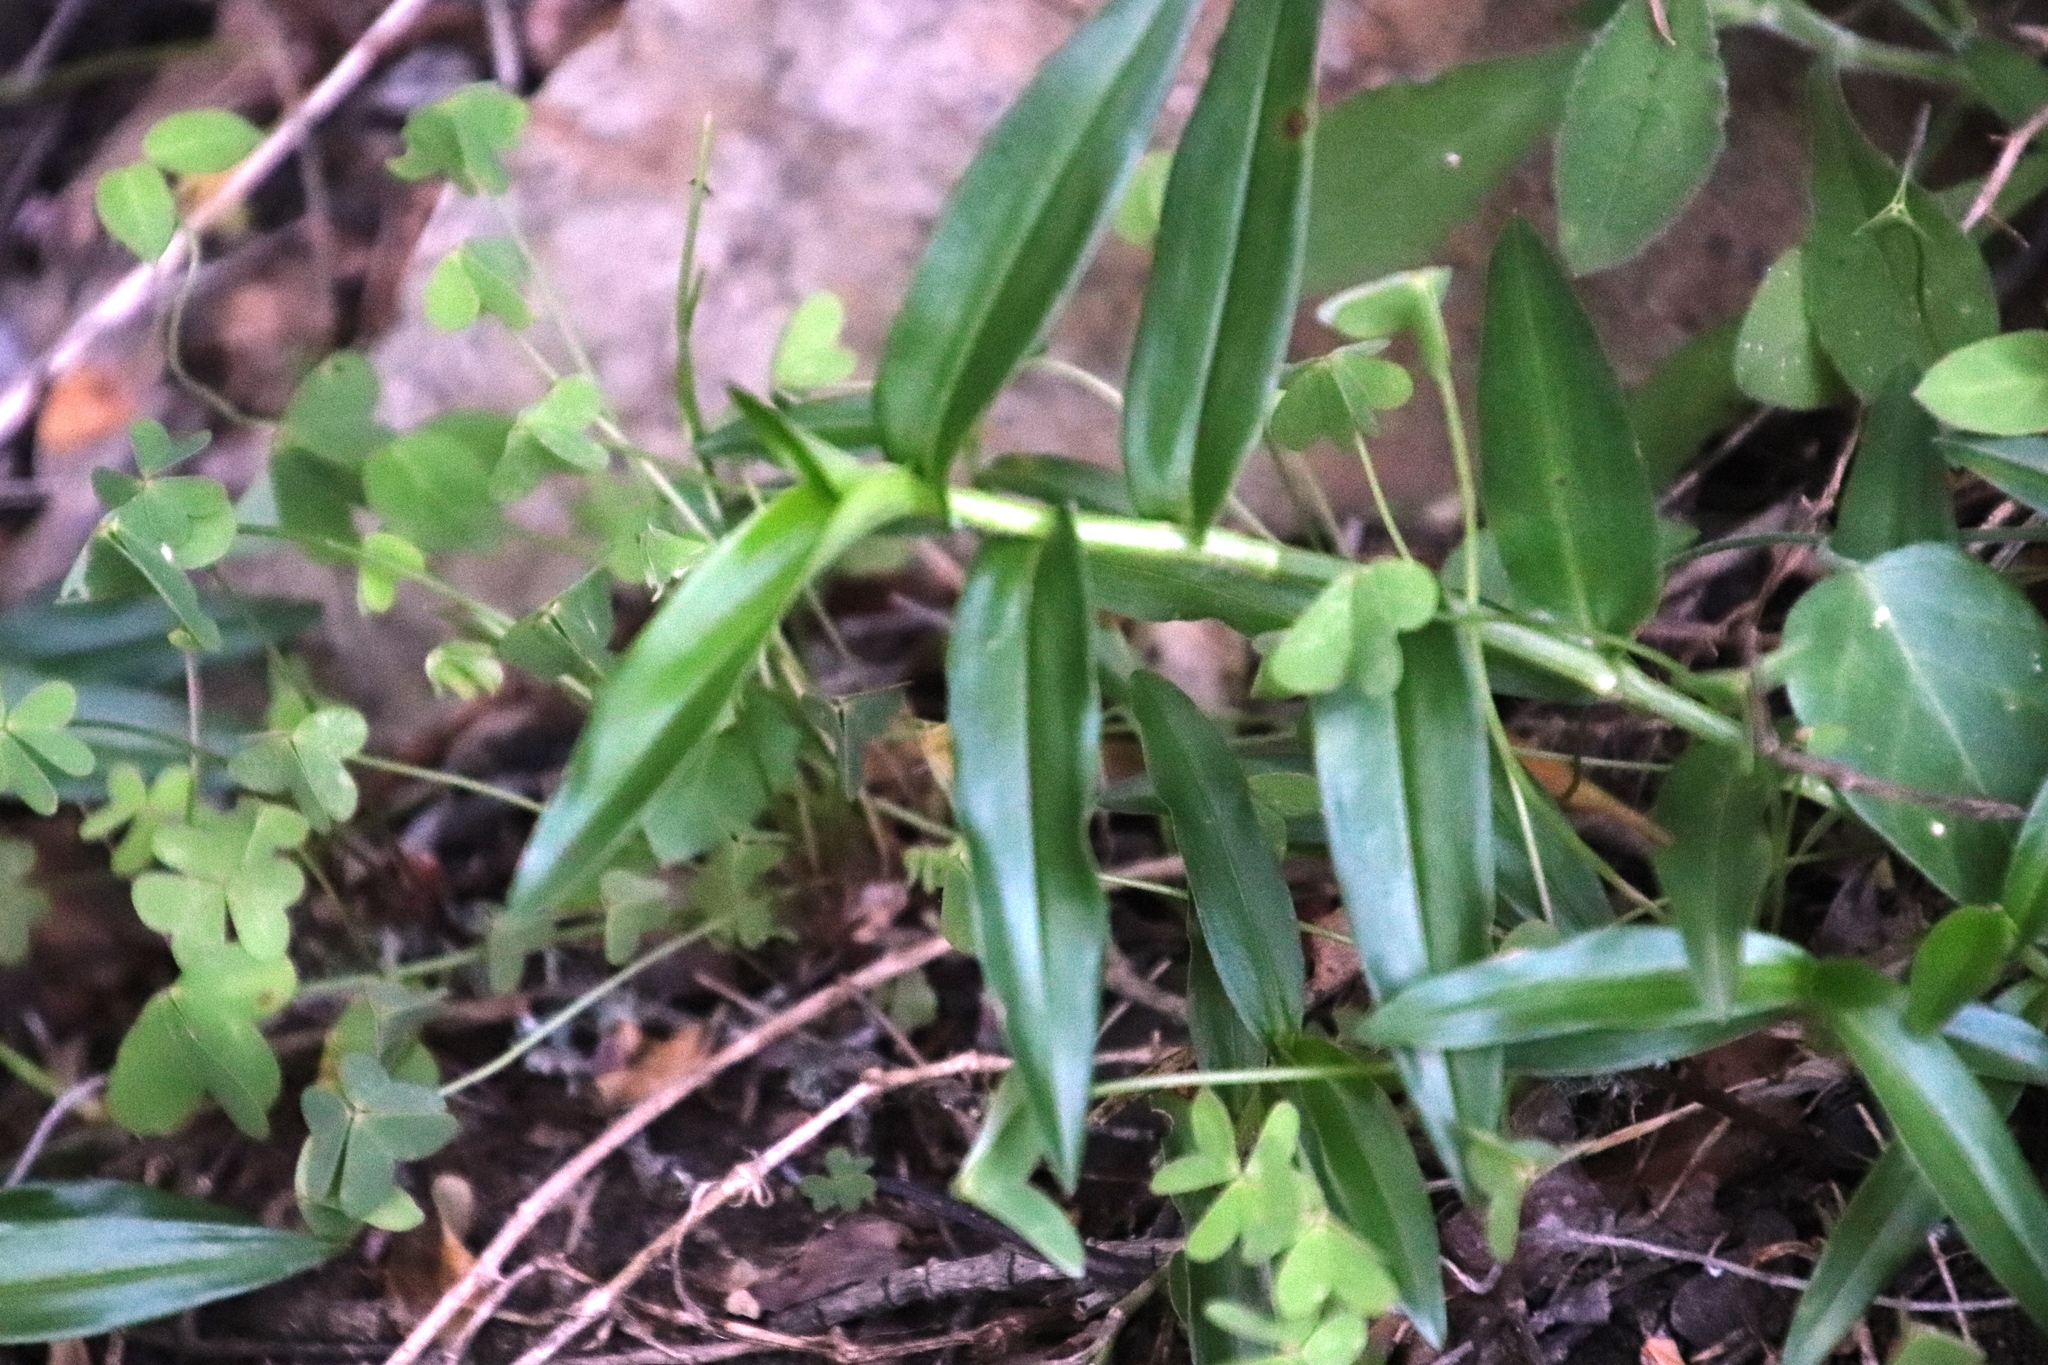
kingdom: Plantae
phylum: Tracheophyta
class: Liliopsida
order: Commelinales
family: Commelinaceae
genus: Commelina
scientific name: Commelina africana
